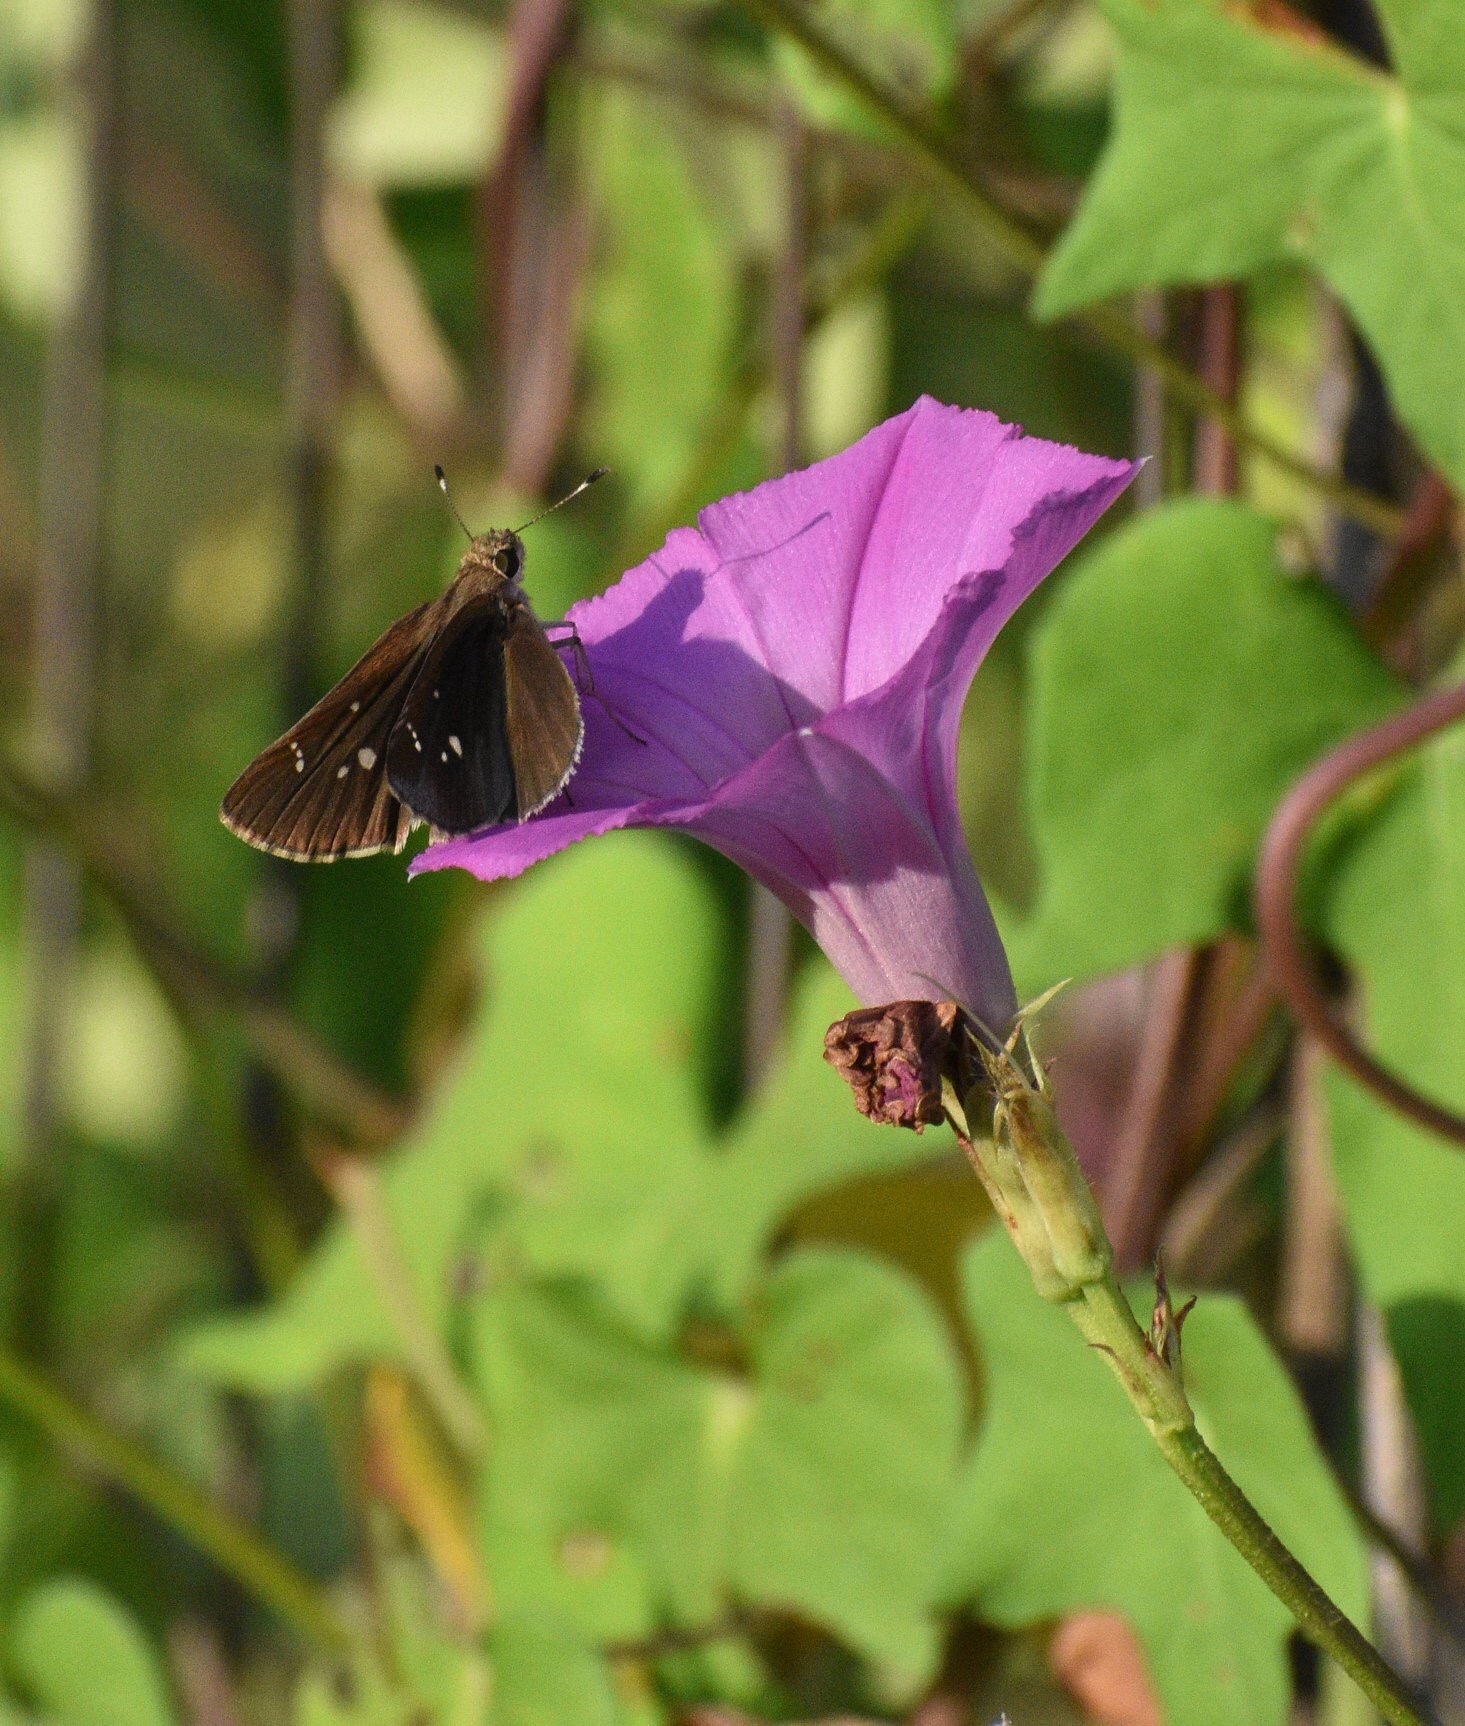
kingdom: Animalia
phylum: Arthropoda
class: Insecta
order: Lepidoptera
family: Hesperiidae
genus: Lerema
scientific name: Lerema accius
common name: Clouded skipper
